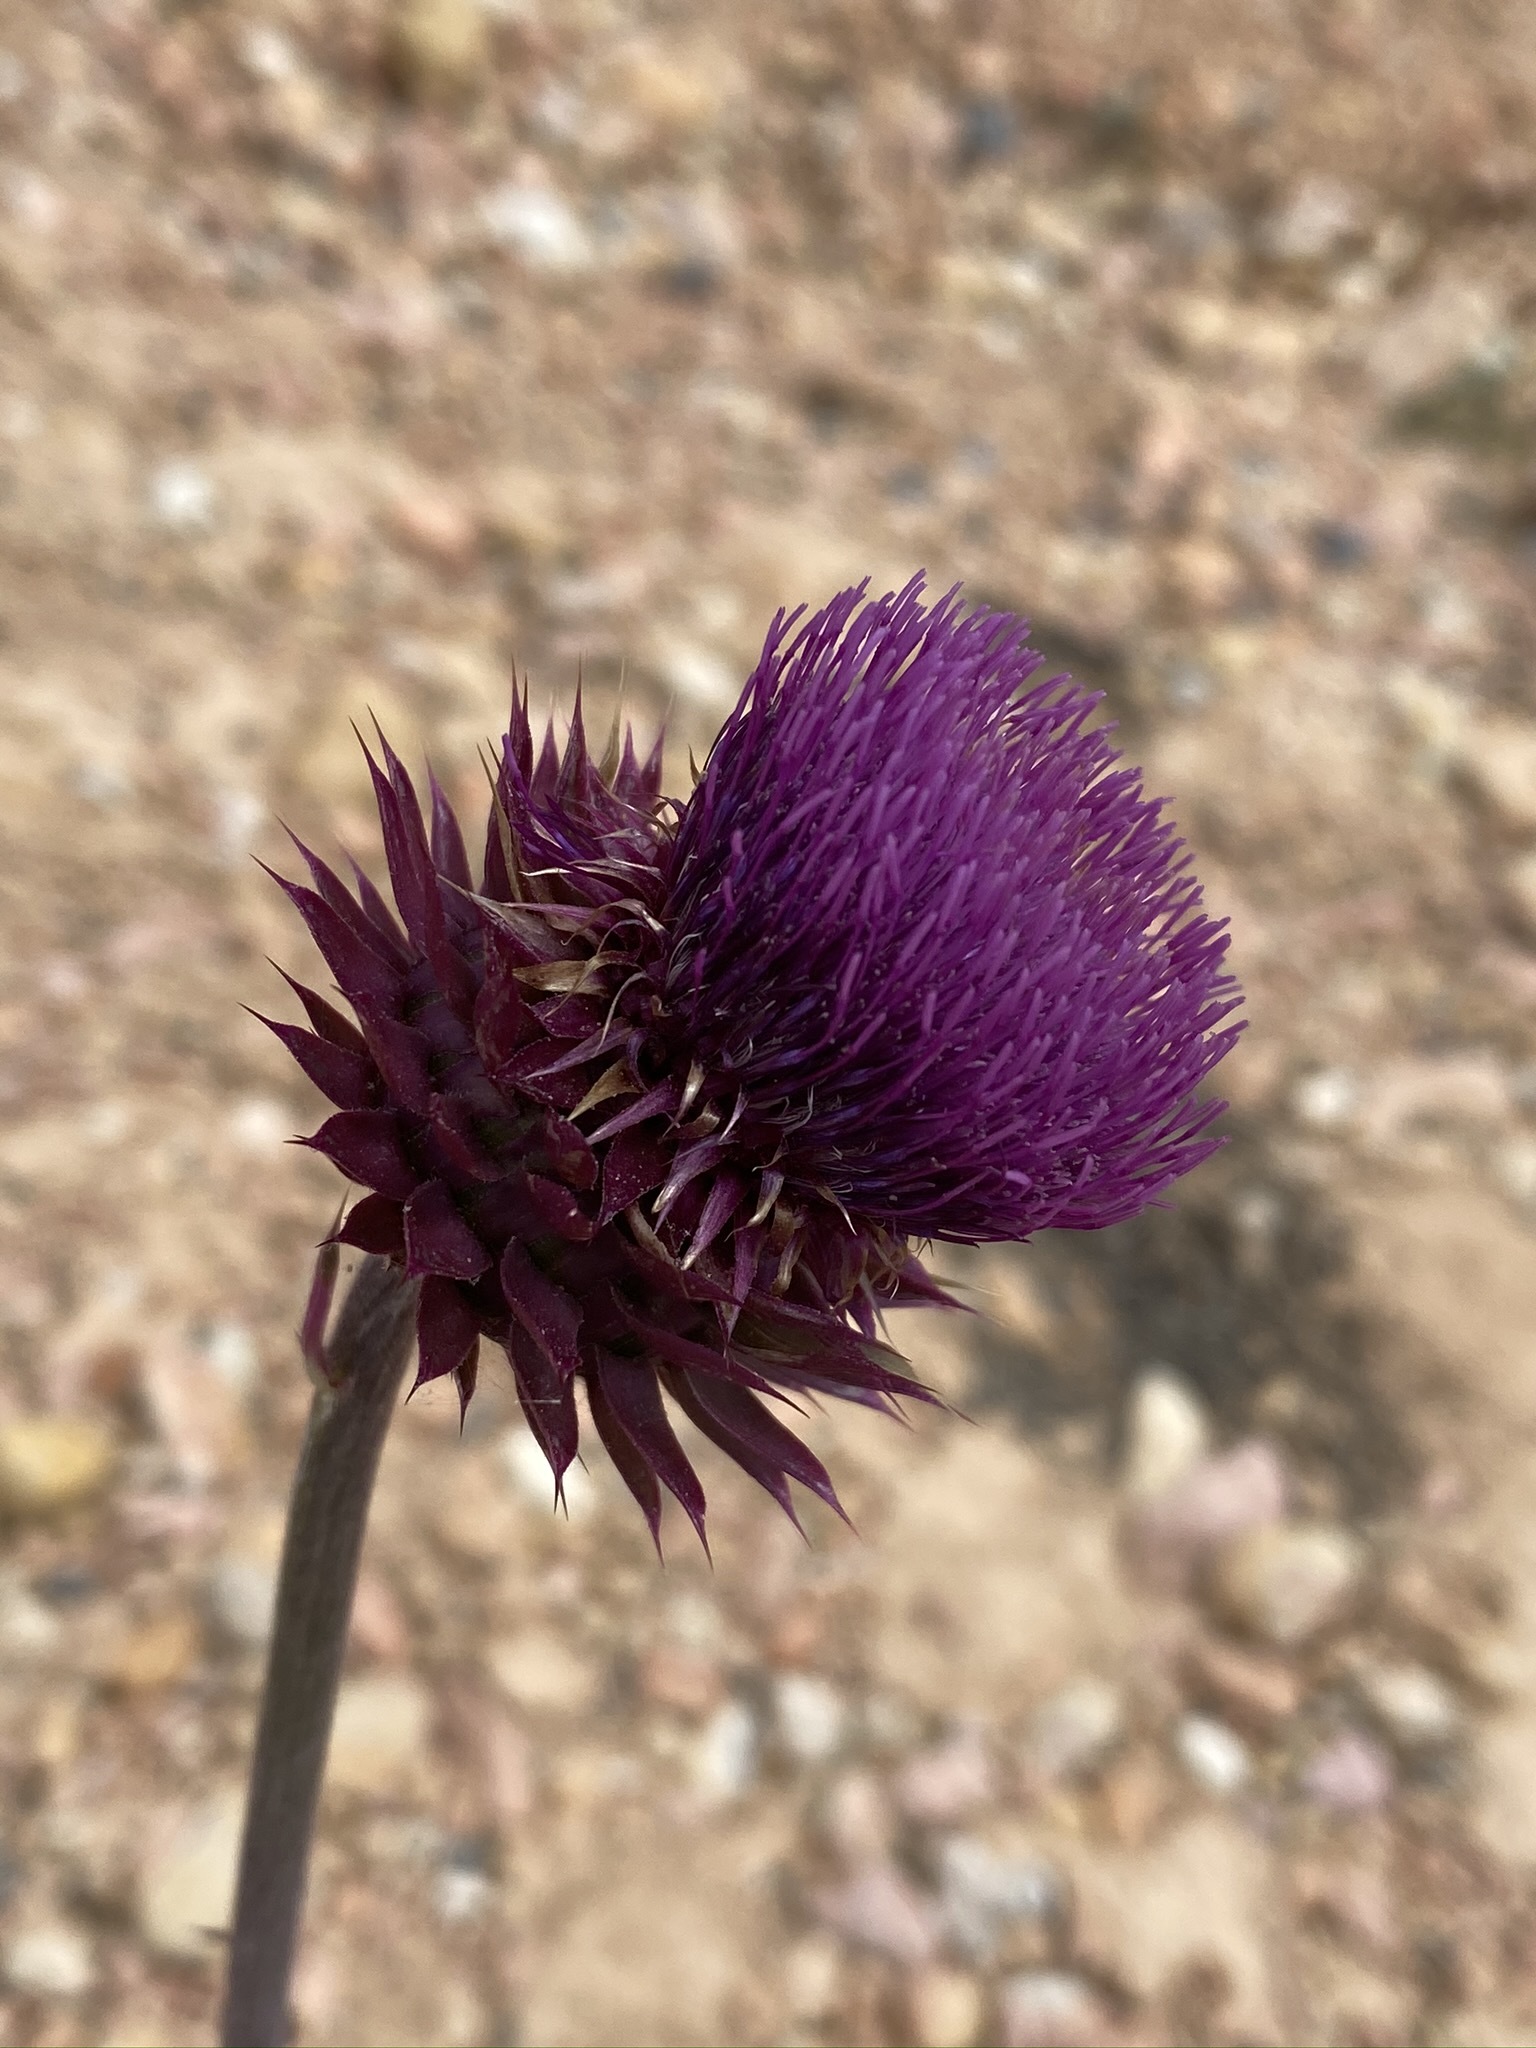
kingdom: Plantae
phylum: Tracheophyta
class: Magnoliopsida
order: Asterales
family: Asteraceae
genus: Carduus
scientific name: Carduus nutans
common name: Musk thistle
